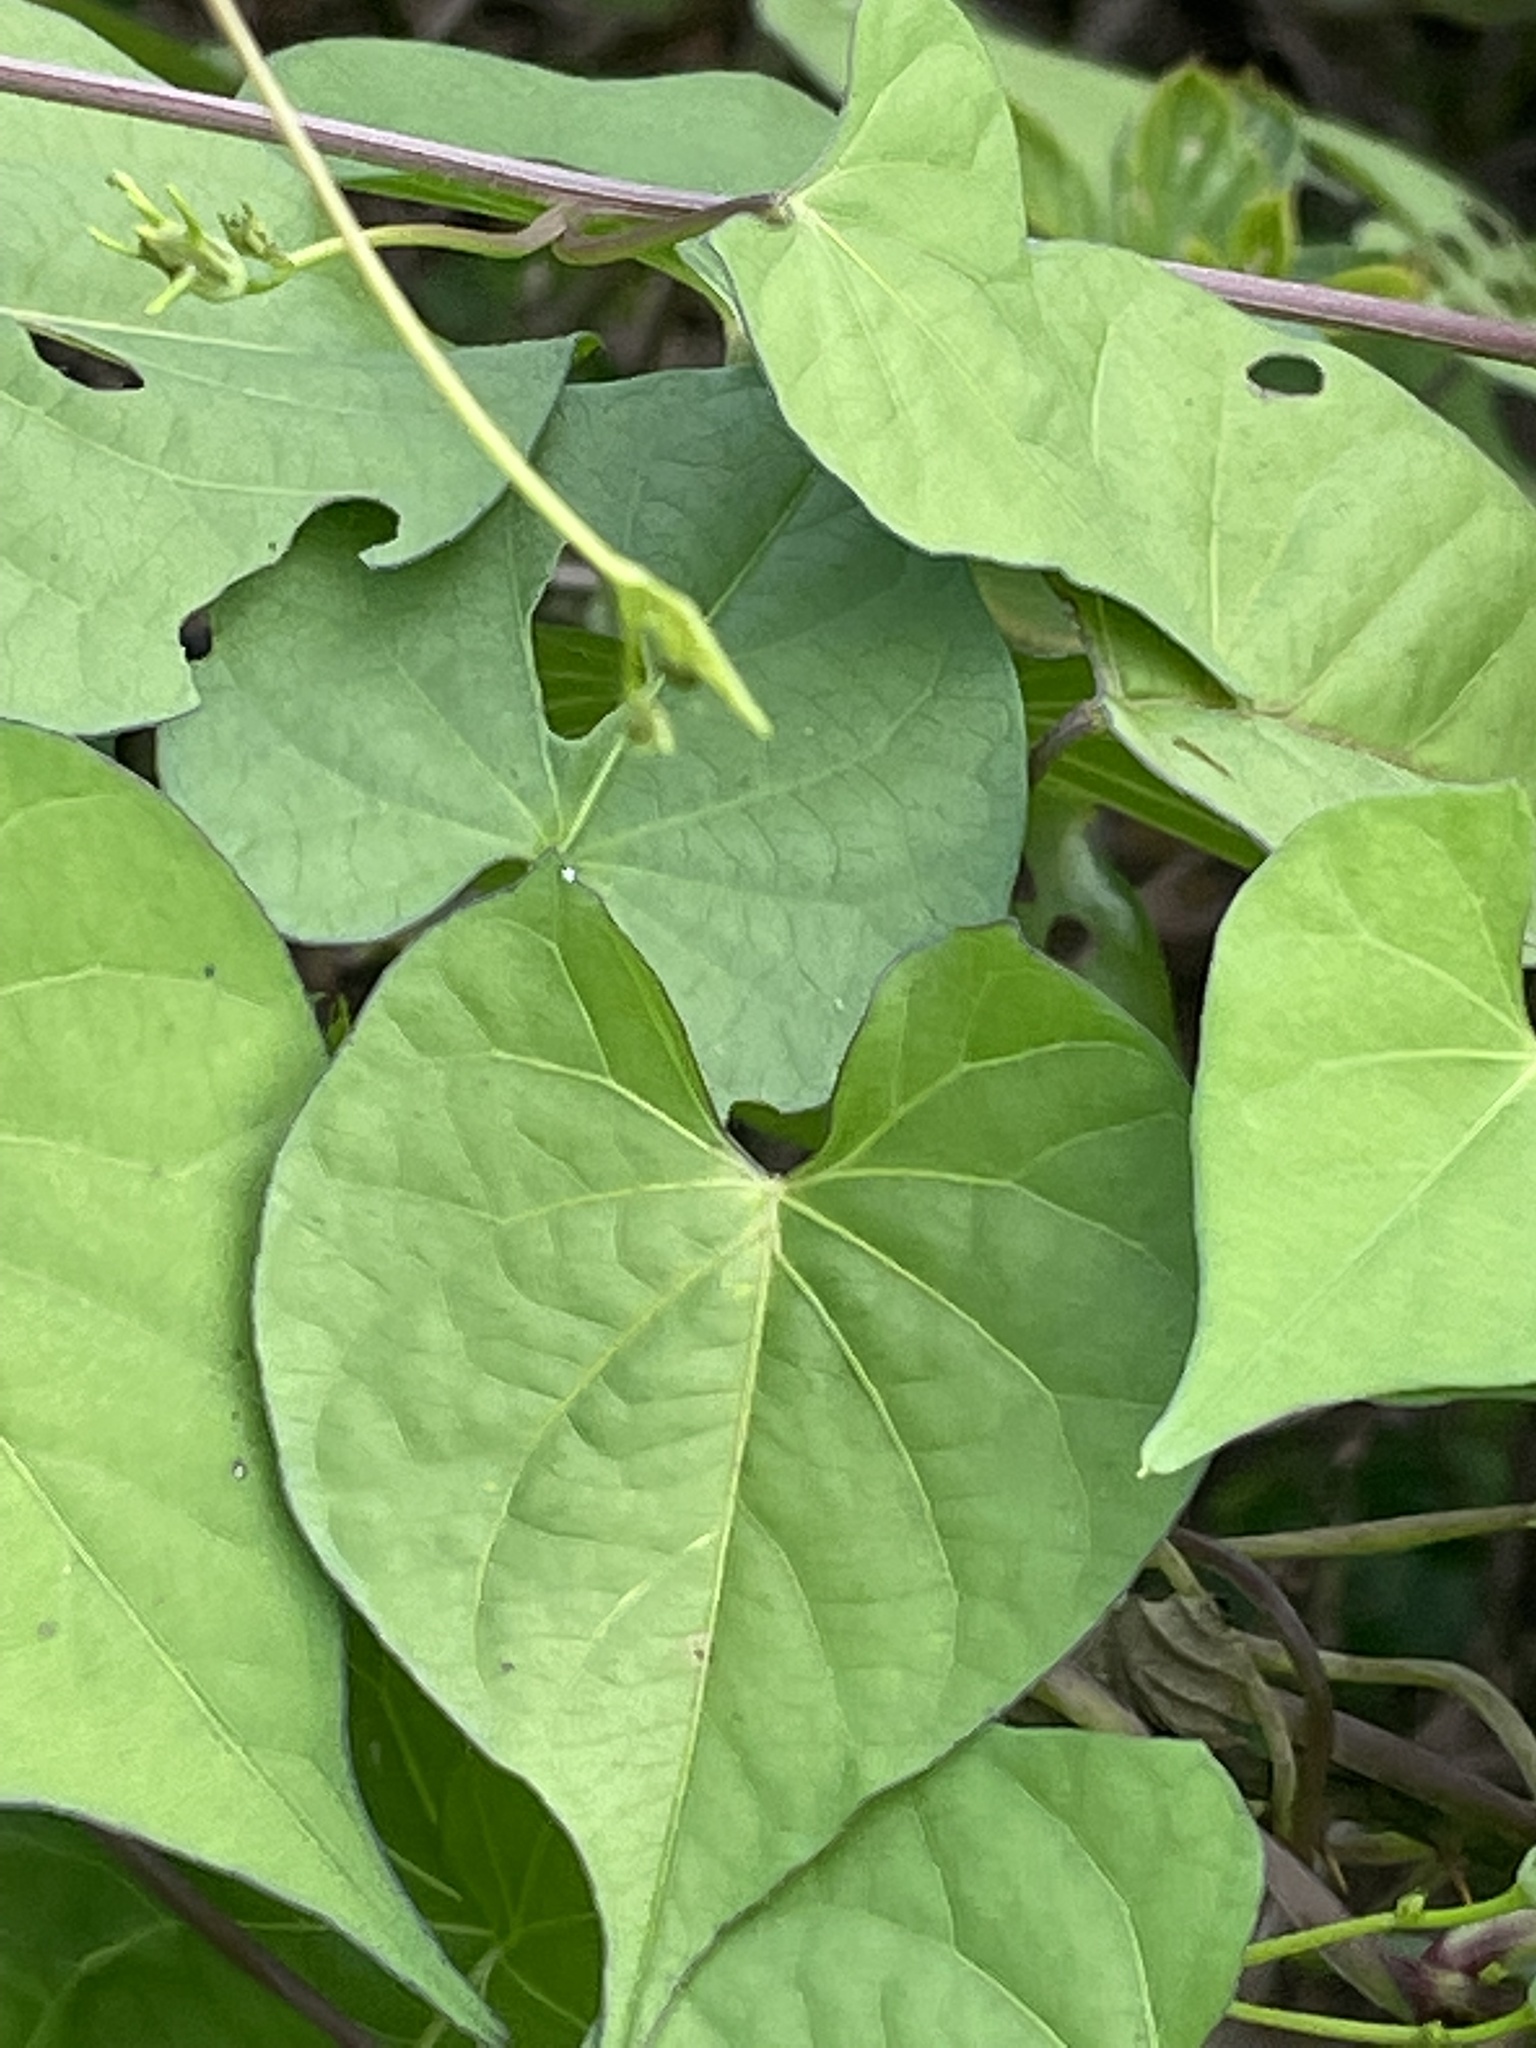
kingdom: Plantae
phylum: Tracheophyta
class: Magnoliopsida
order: Solanales
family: Convolvulaceae
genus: Ipomoea
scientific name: Ipomoea coccinea
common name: Red morning-glory
